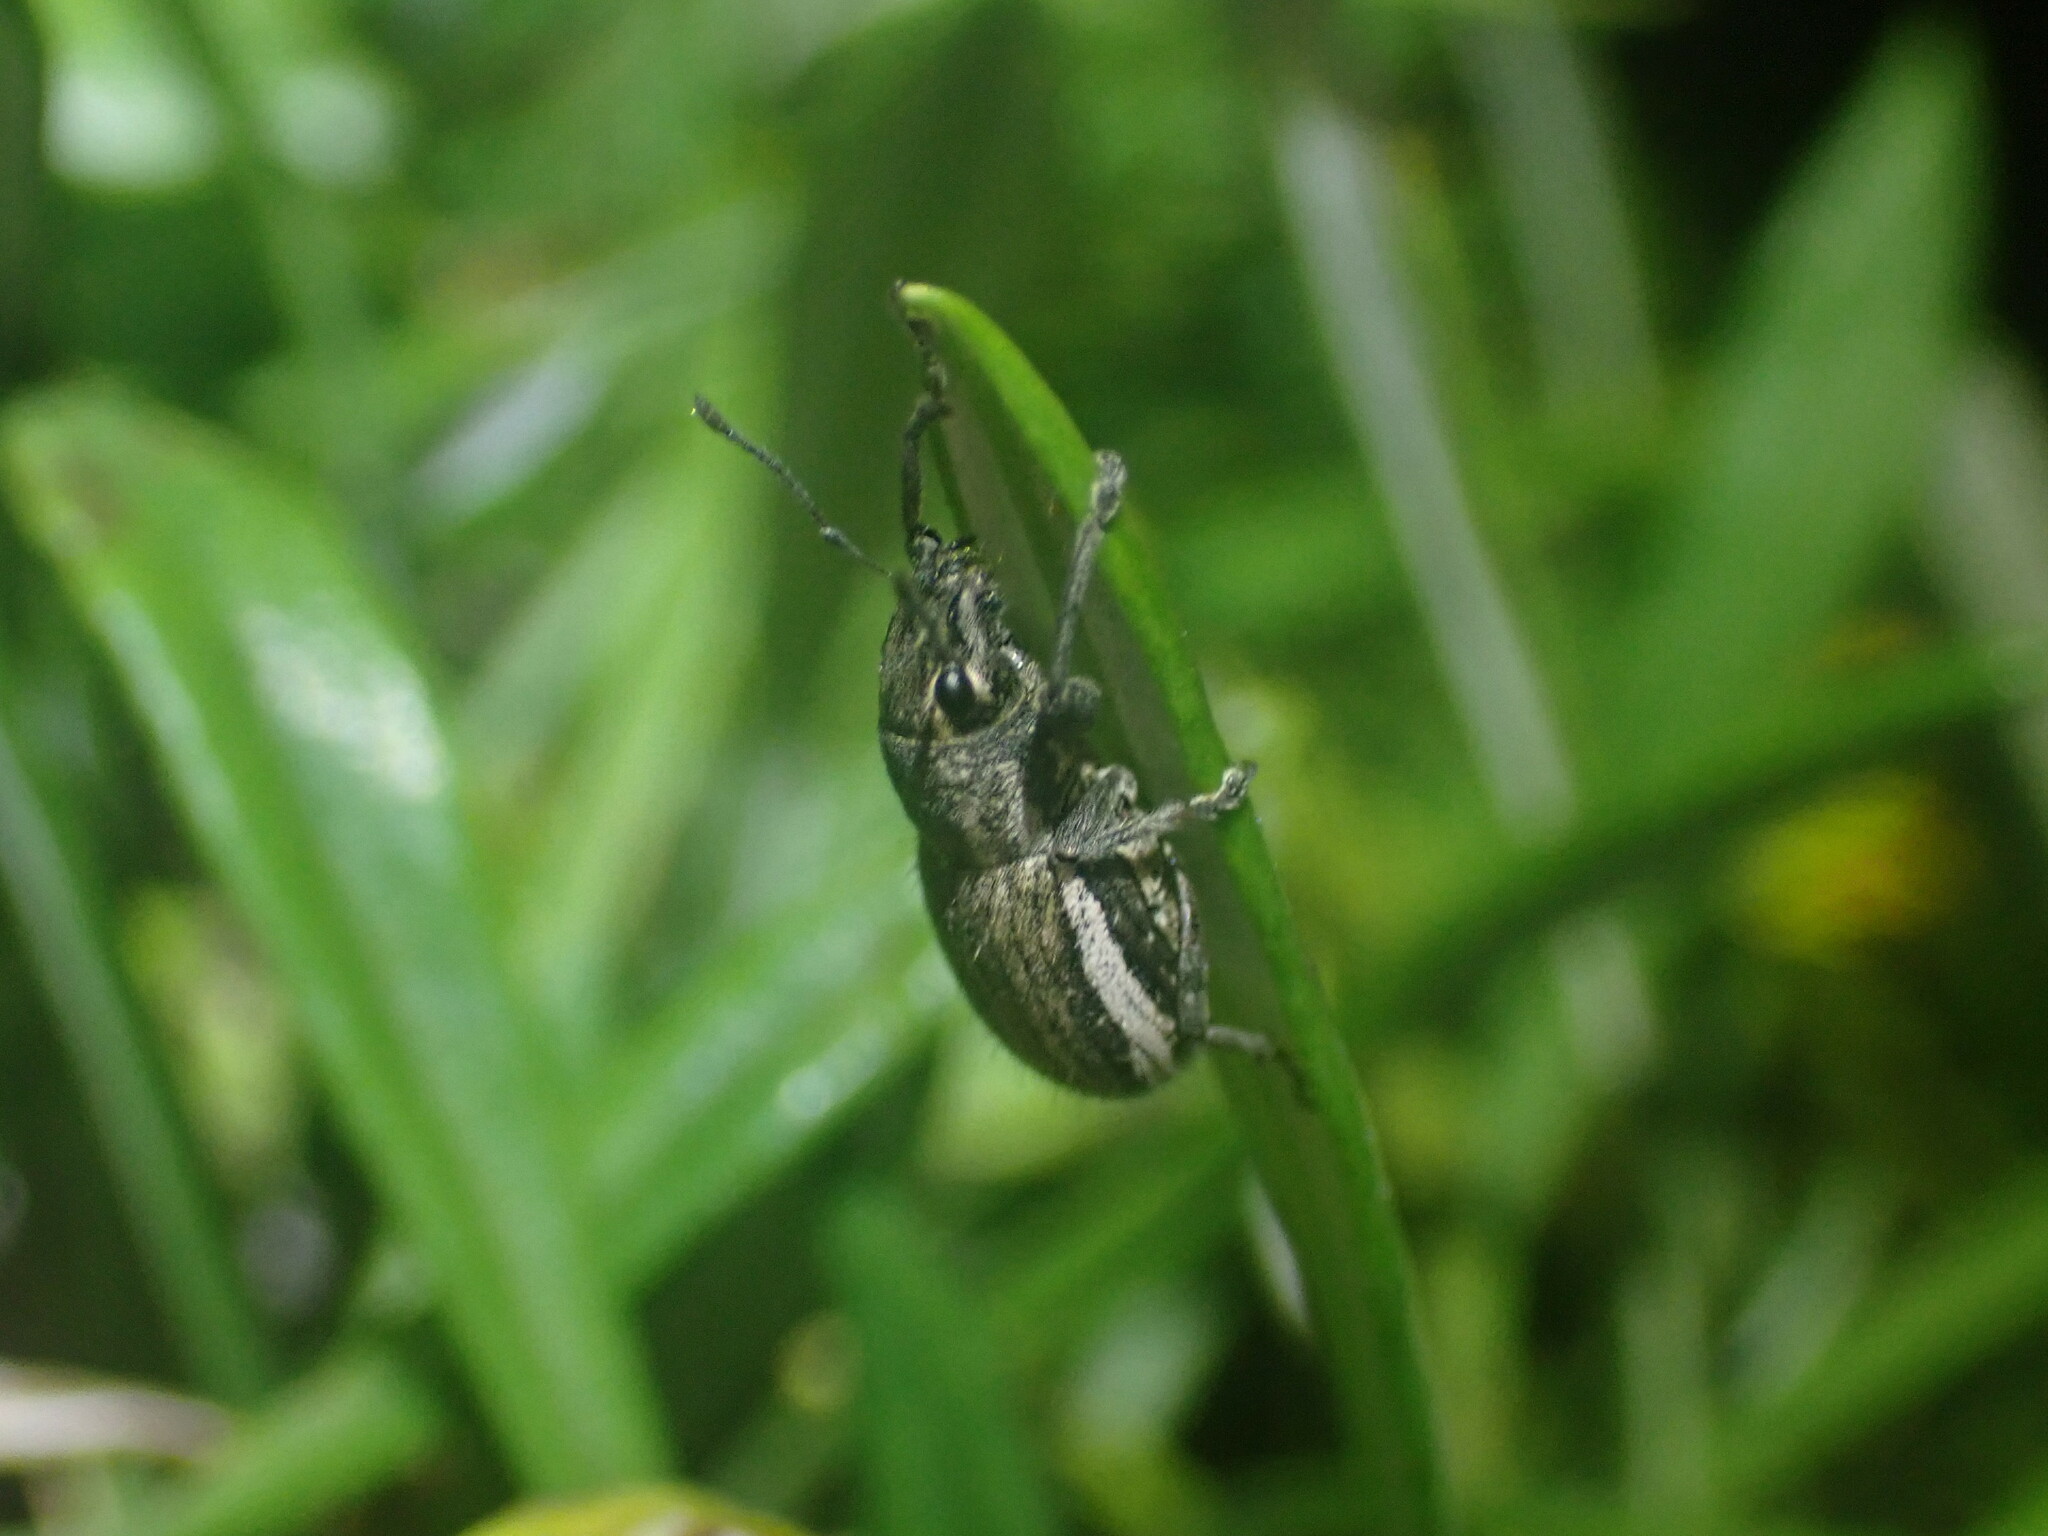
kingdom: Animalia
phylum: Arthropoda
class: Insecta
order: Coleoptera
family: Curculionidae
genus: Naupactus
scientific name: Naupactus leucoloma
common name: Whitefringed beetle
